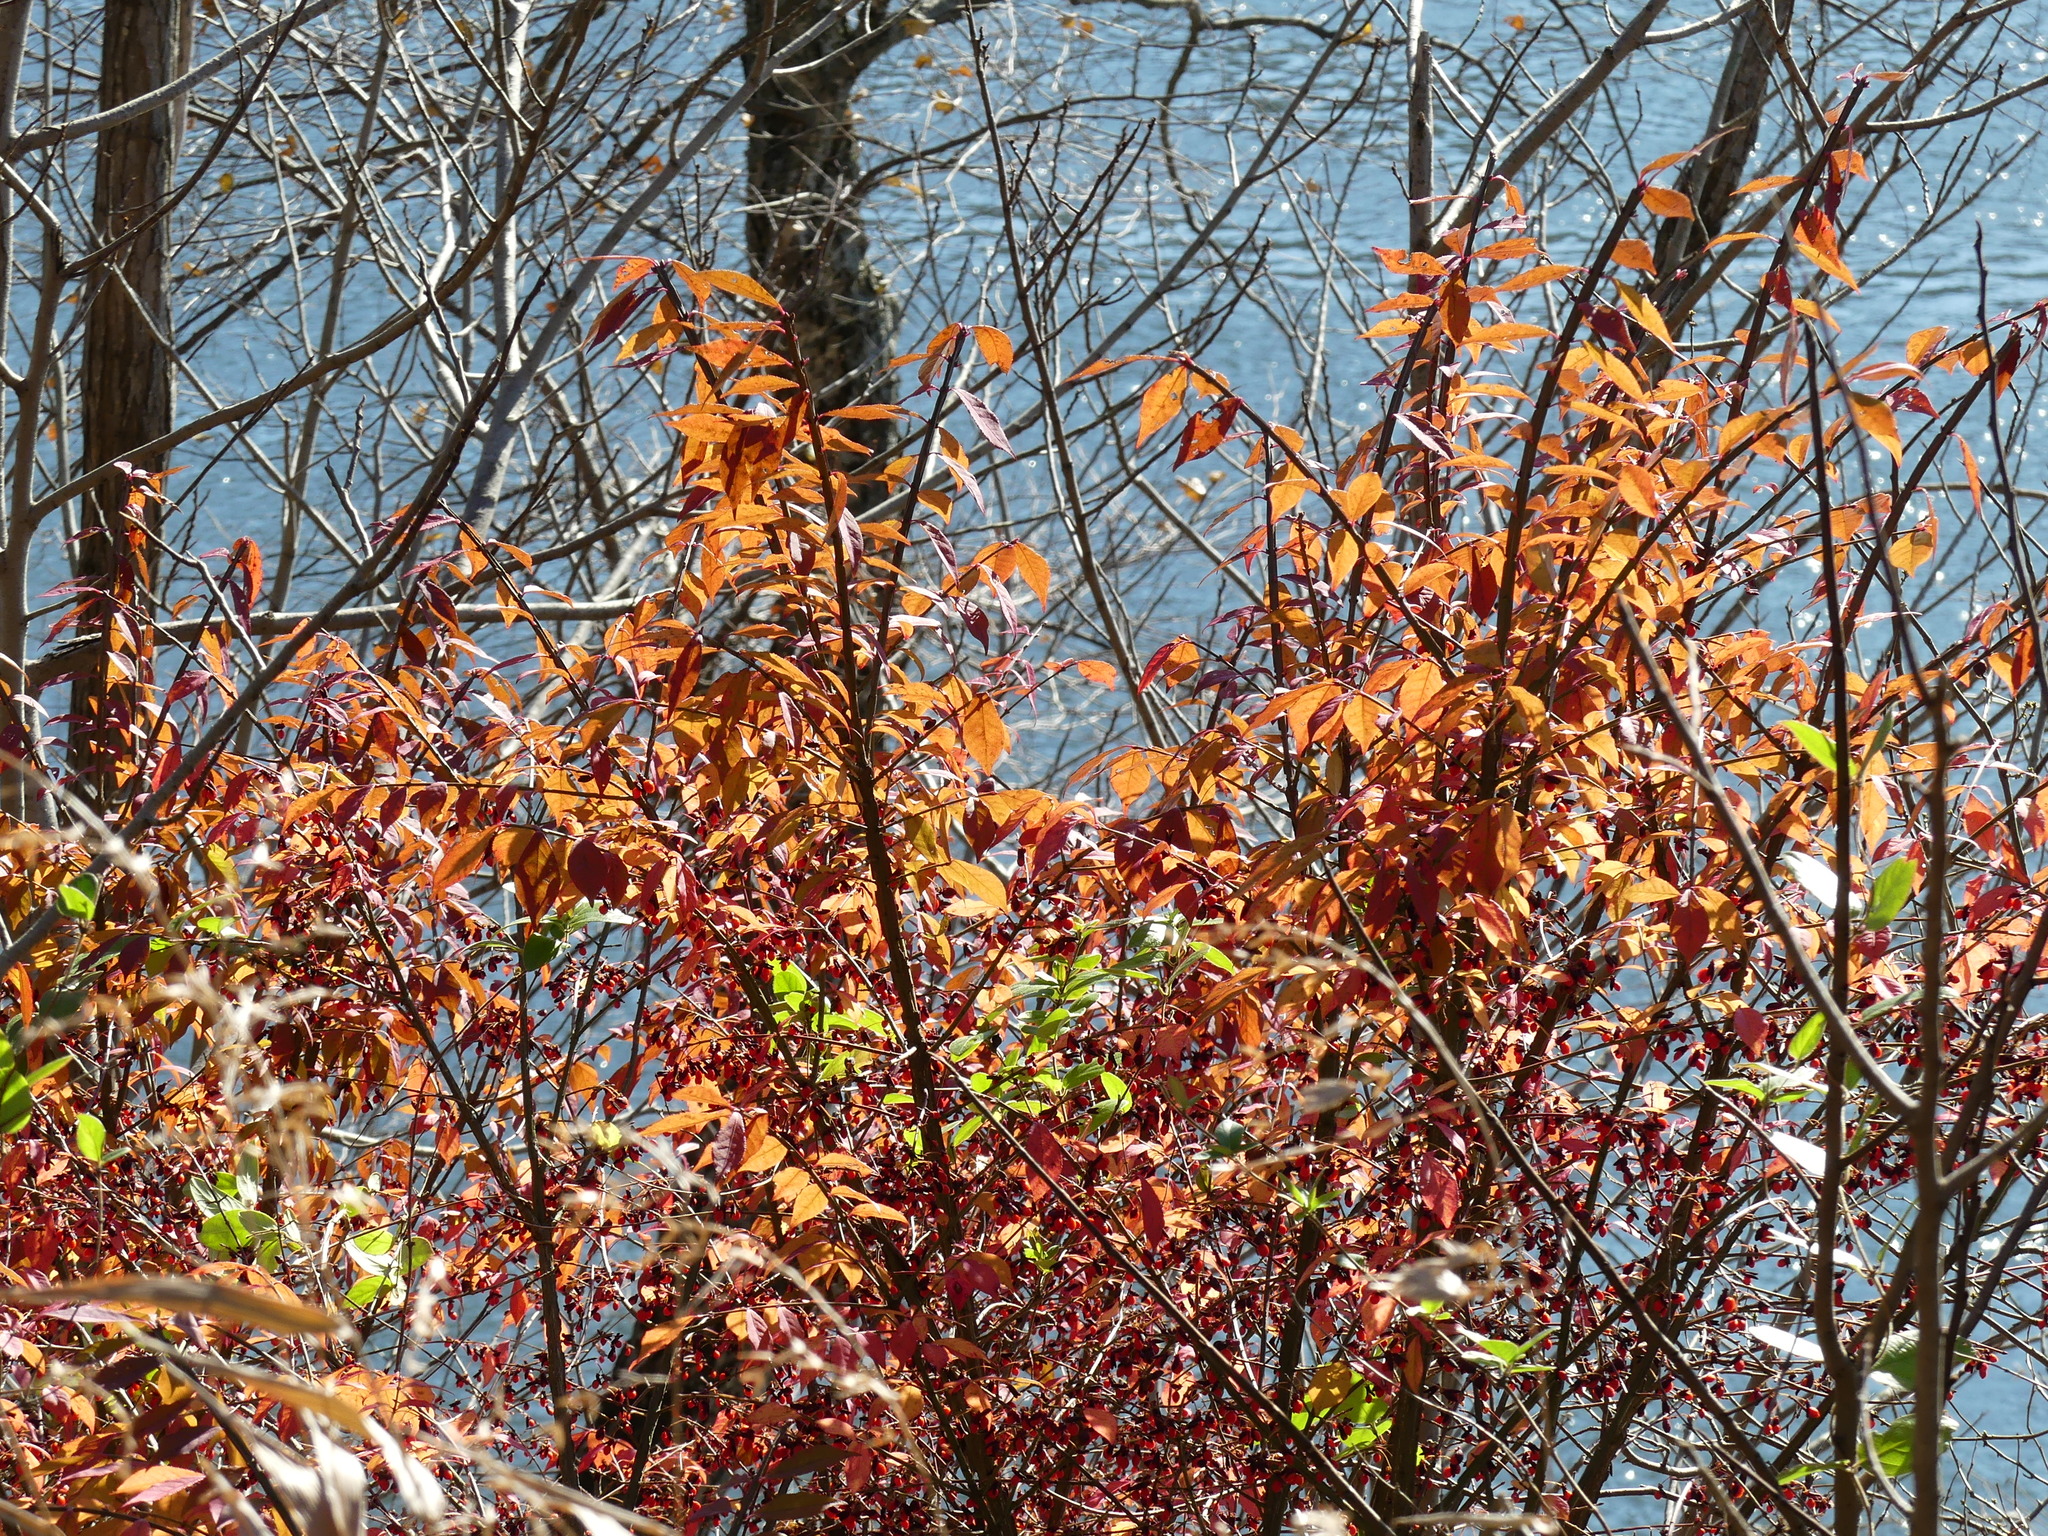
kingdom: Plantae
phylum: Tracheophyta
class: Magnoliopsida
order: Celastrales
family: Celastraceae
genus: Euonymus
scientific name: Euonymus alatus
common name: Winged euonymus
